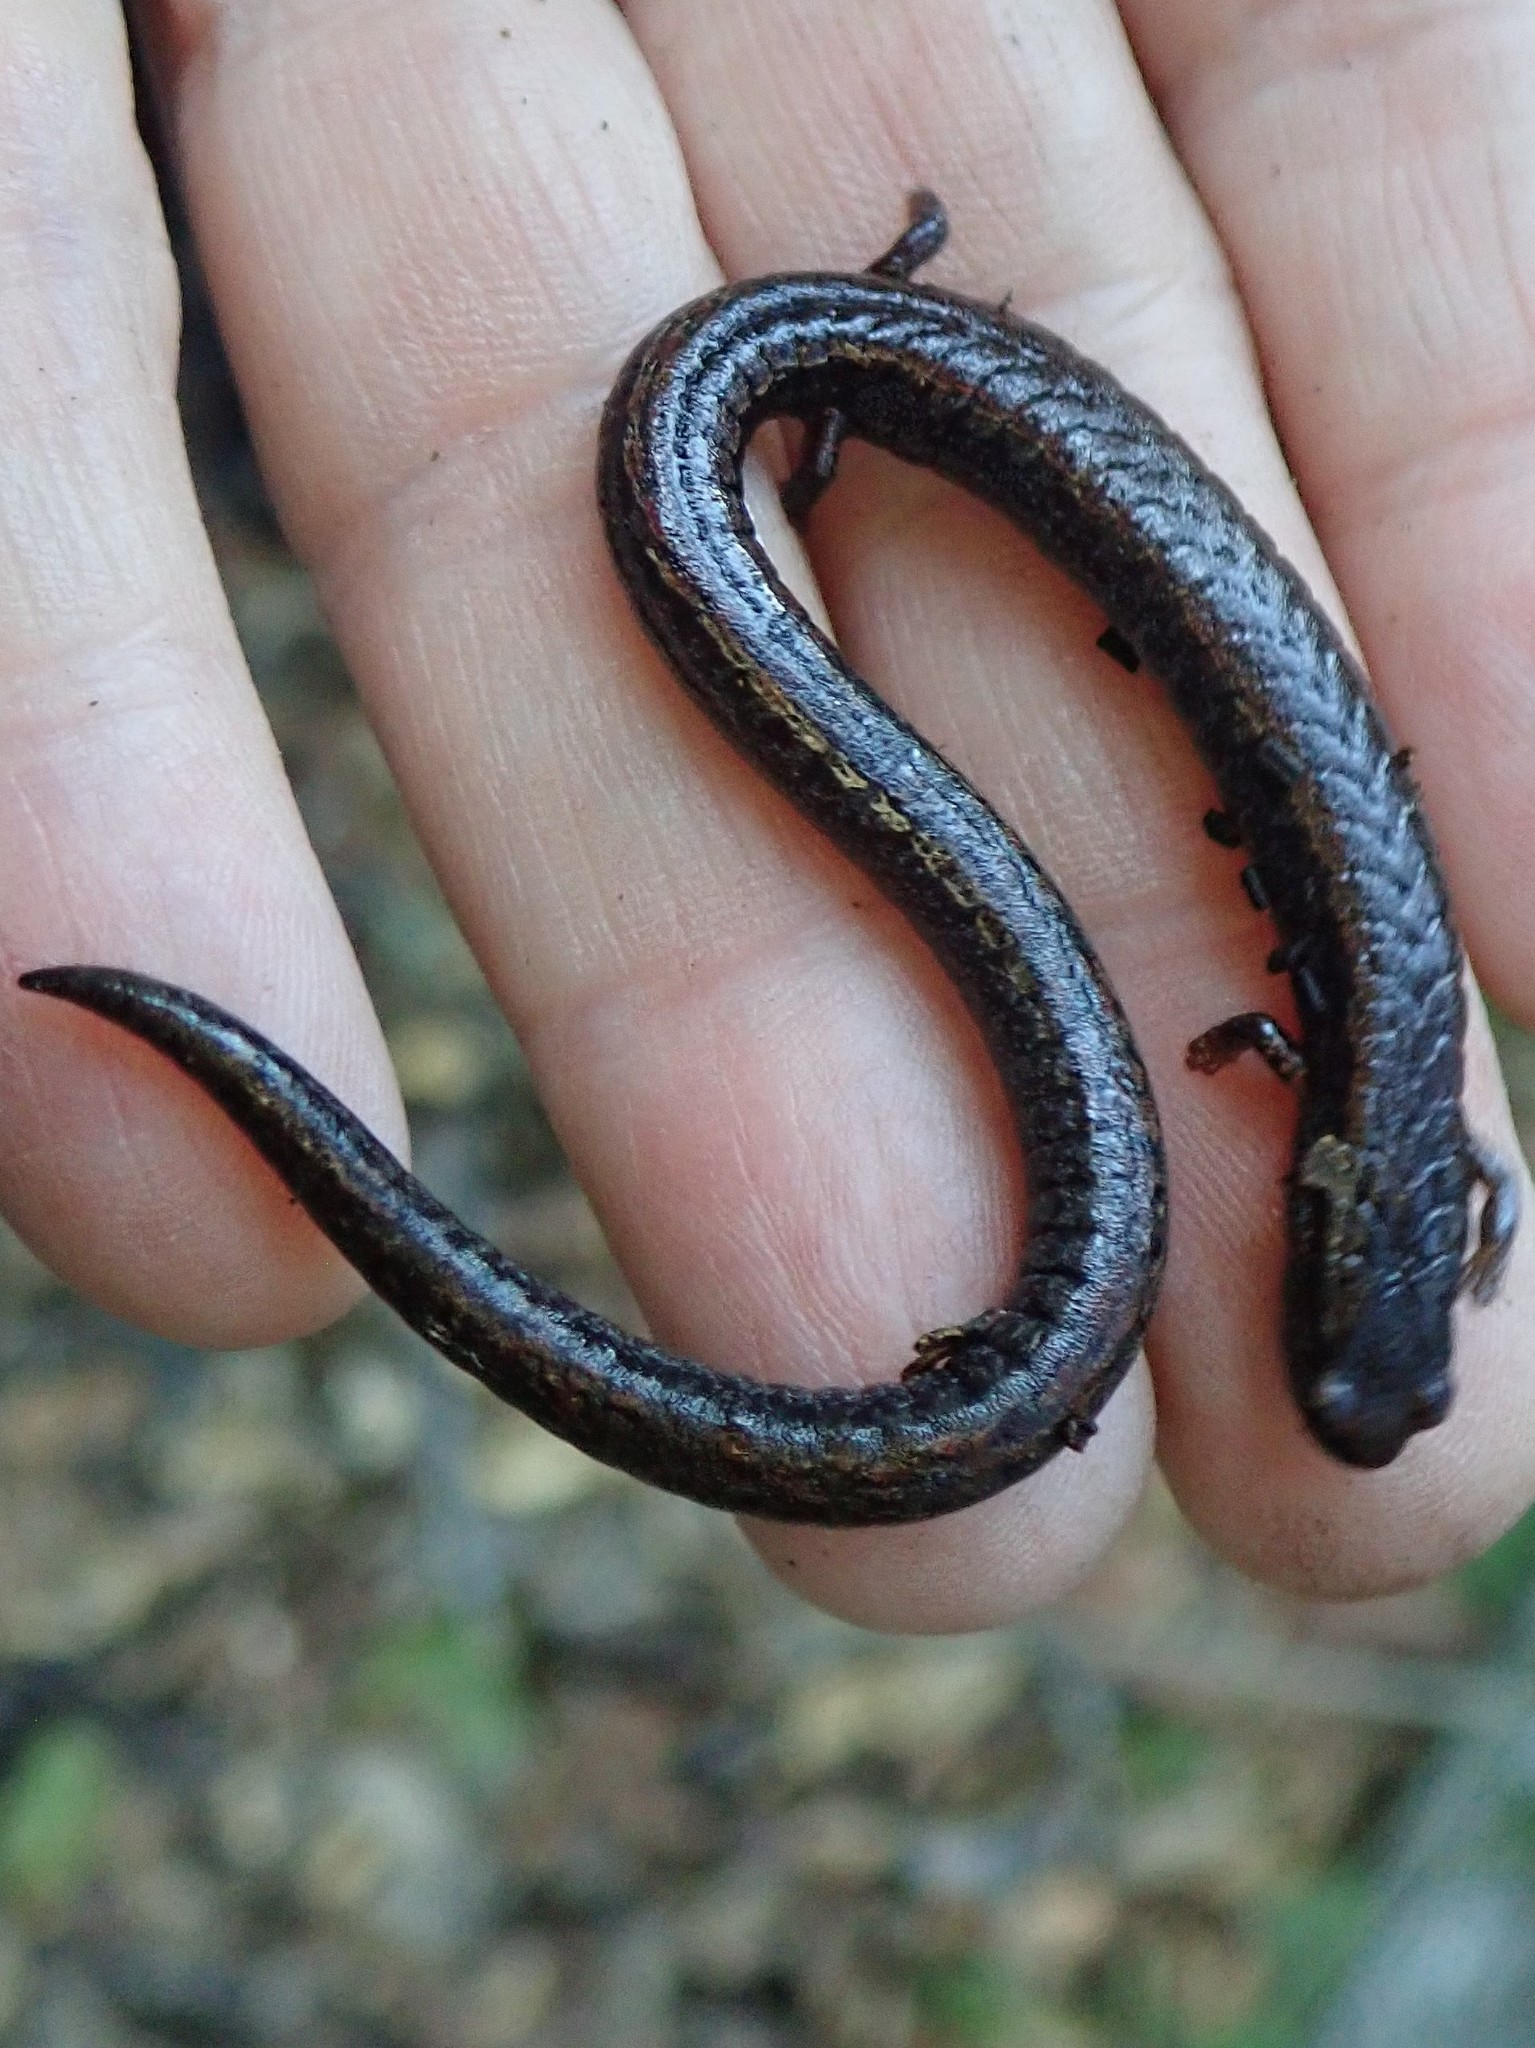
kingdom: Animalia
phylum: Chordata
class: Amphibia
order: Caudata
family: Plethodontidae
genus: Batrachoseps
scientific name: Batrachoseps attenuatus
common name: California slender salamander
